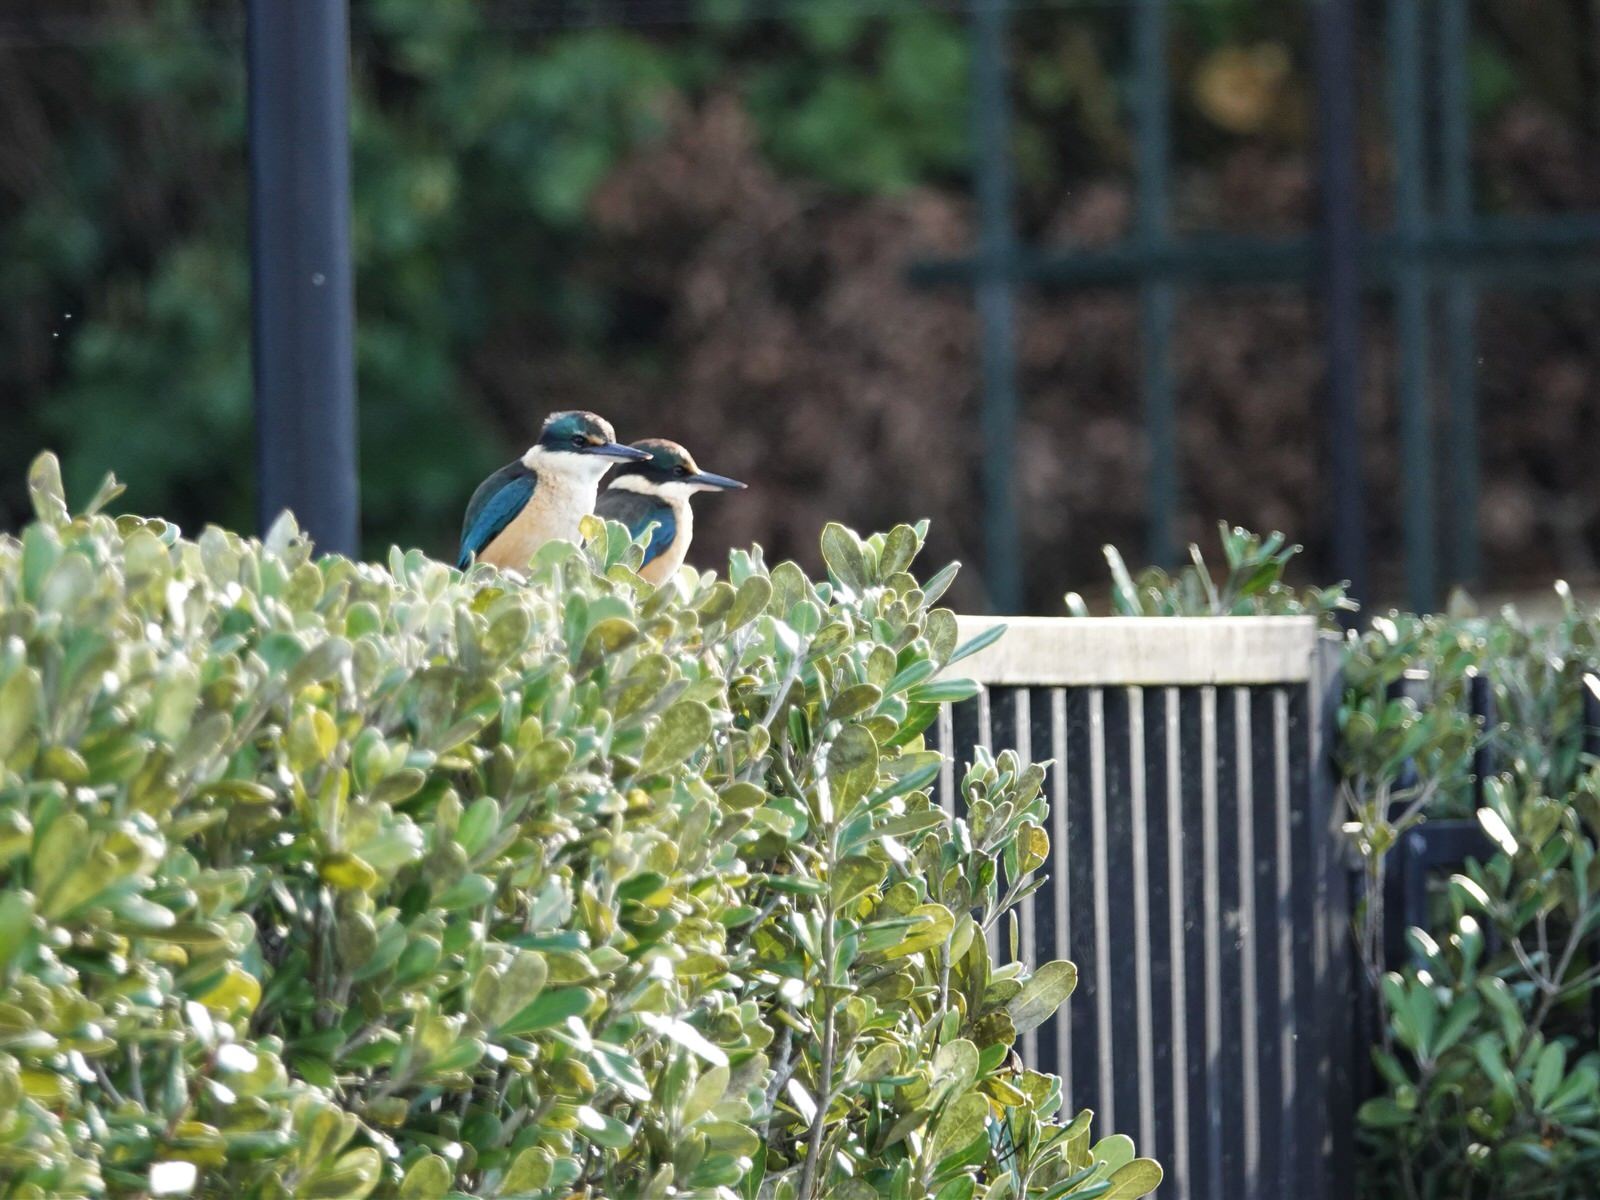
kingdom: Animalia
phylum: Chordata
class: Aves
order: Coraciiformes
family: Alcedinidae
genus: Todiramphus
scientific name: Todiramphus sanctus
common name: Sacred kingfisher
